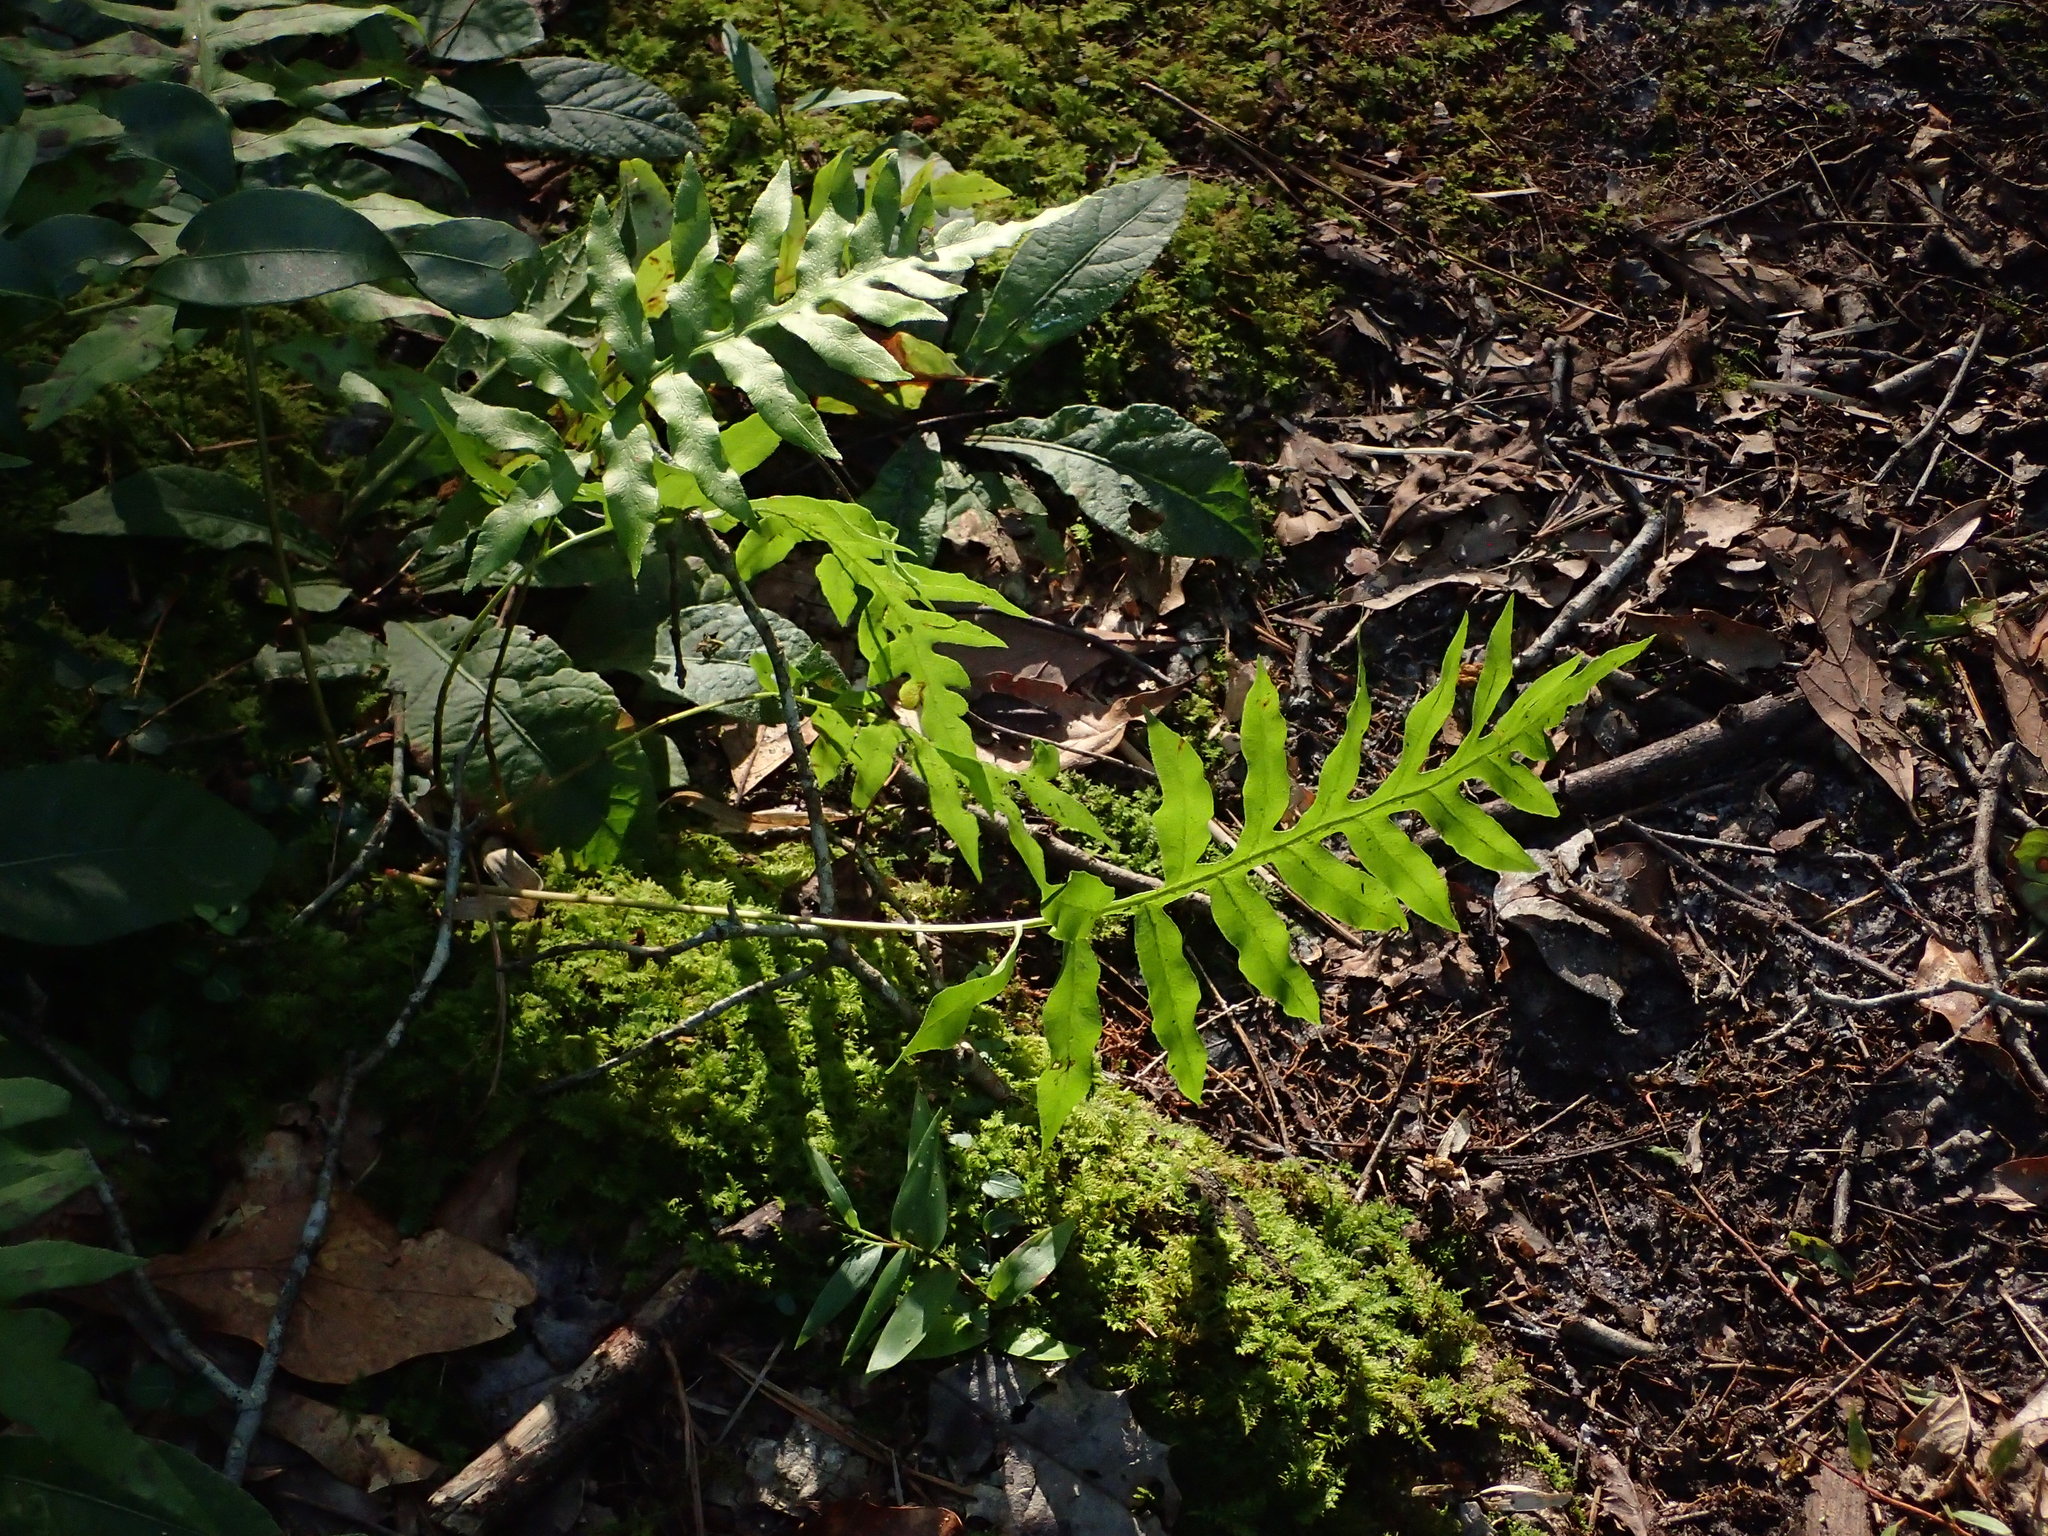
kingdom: Plantae
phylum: Tracheophyta
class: Polypodiopsida
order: Polypodiales
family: Blechnaceae
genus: Lorinseria
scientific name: Lorinseria areolata
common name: Dwarf chain fern
